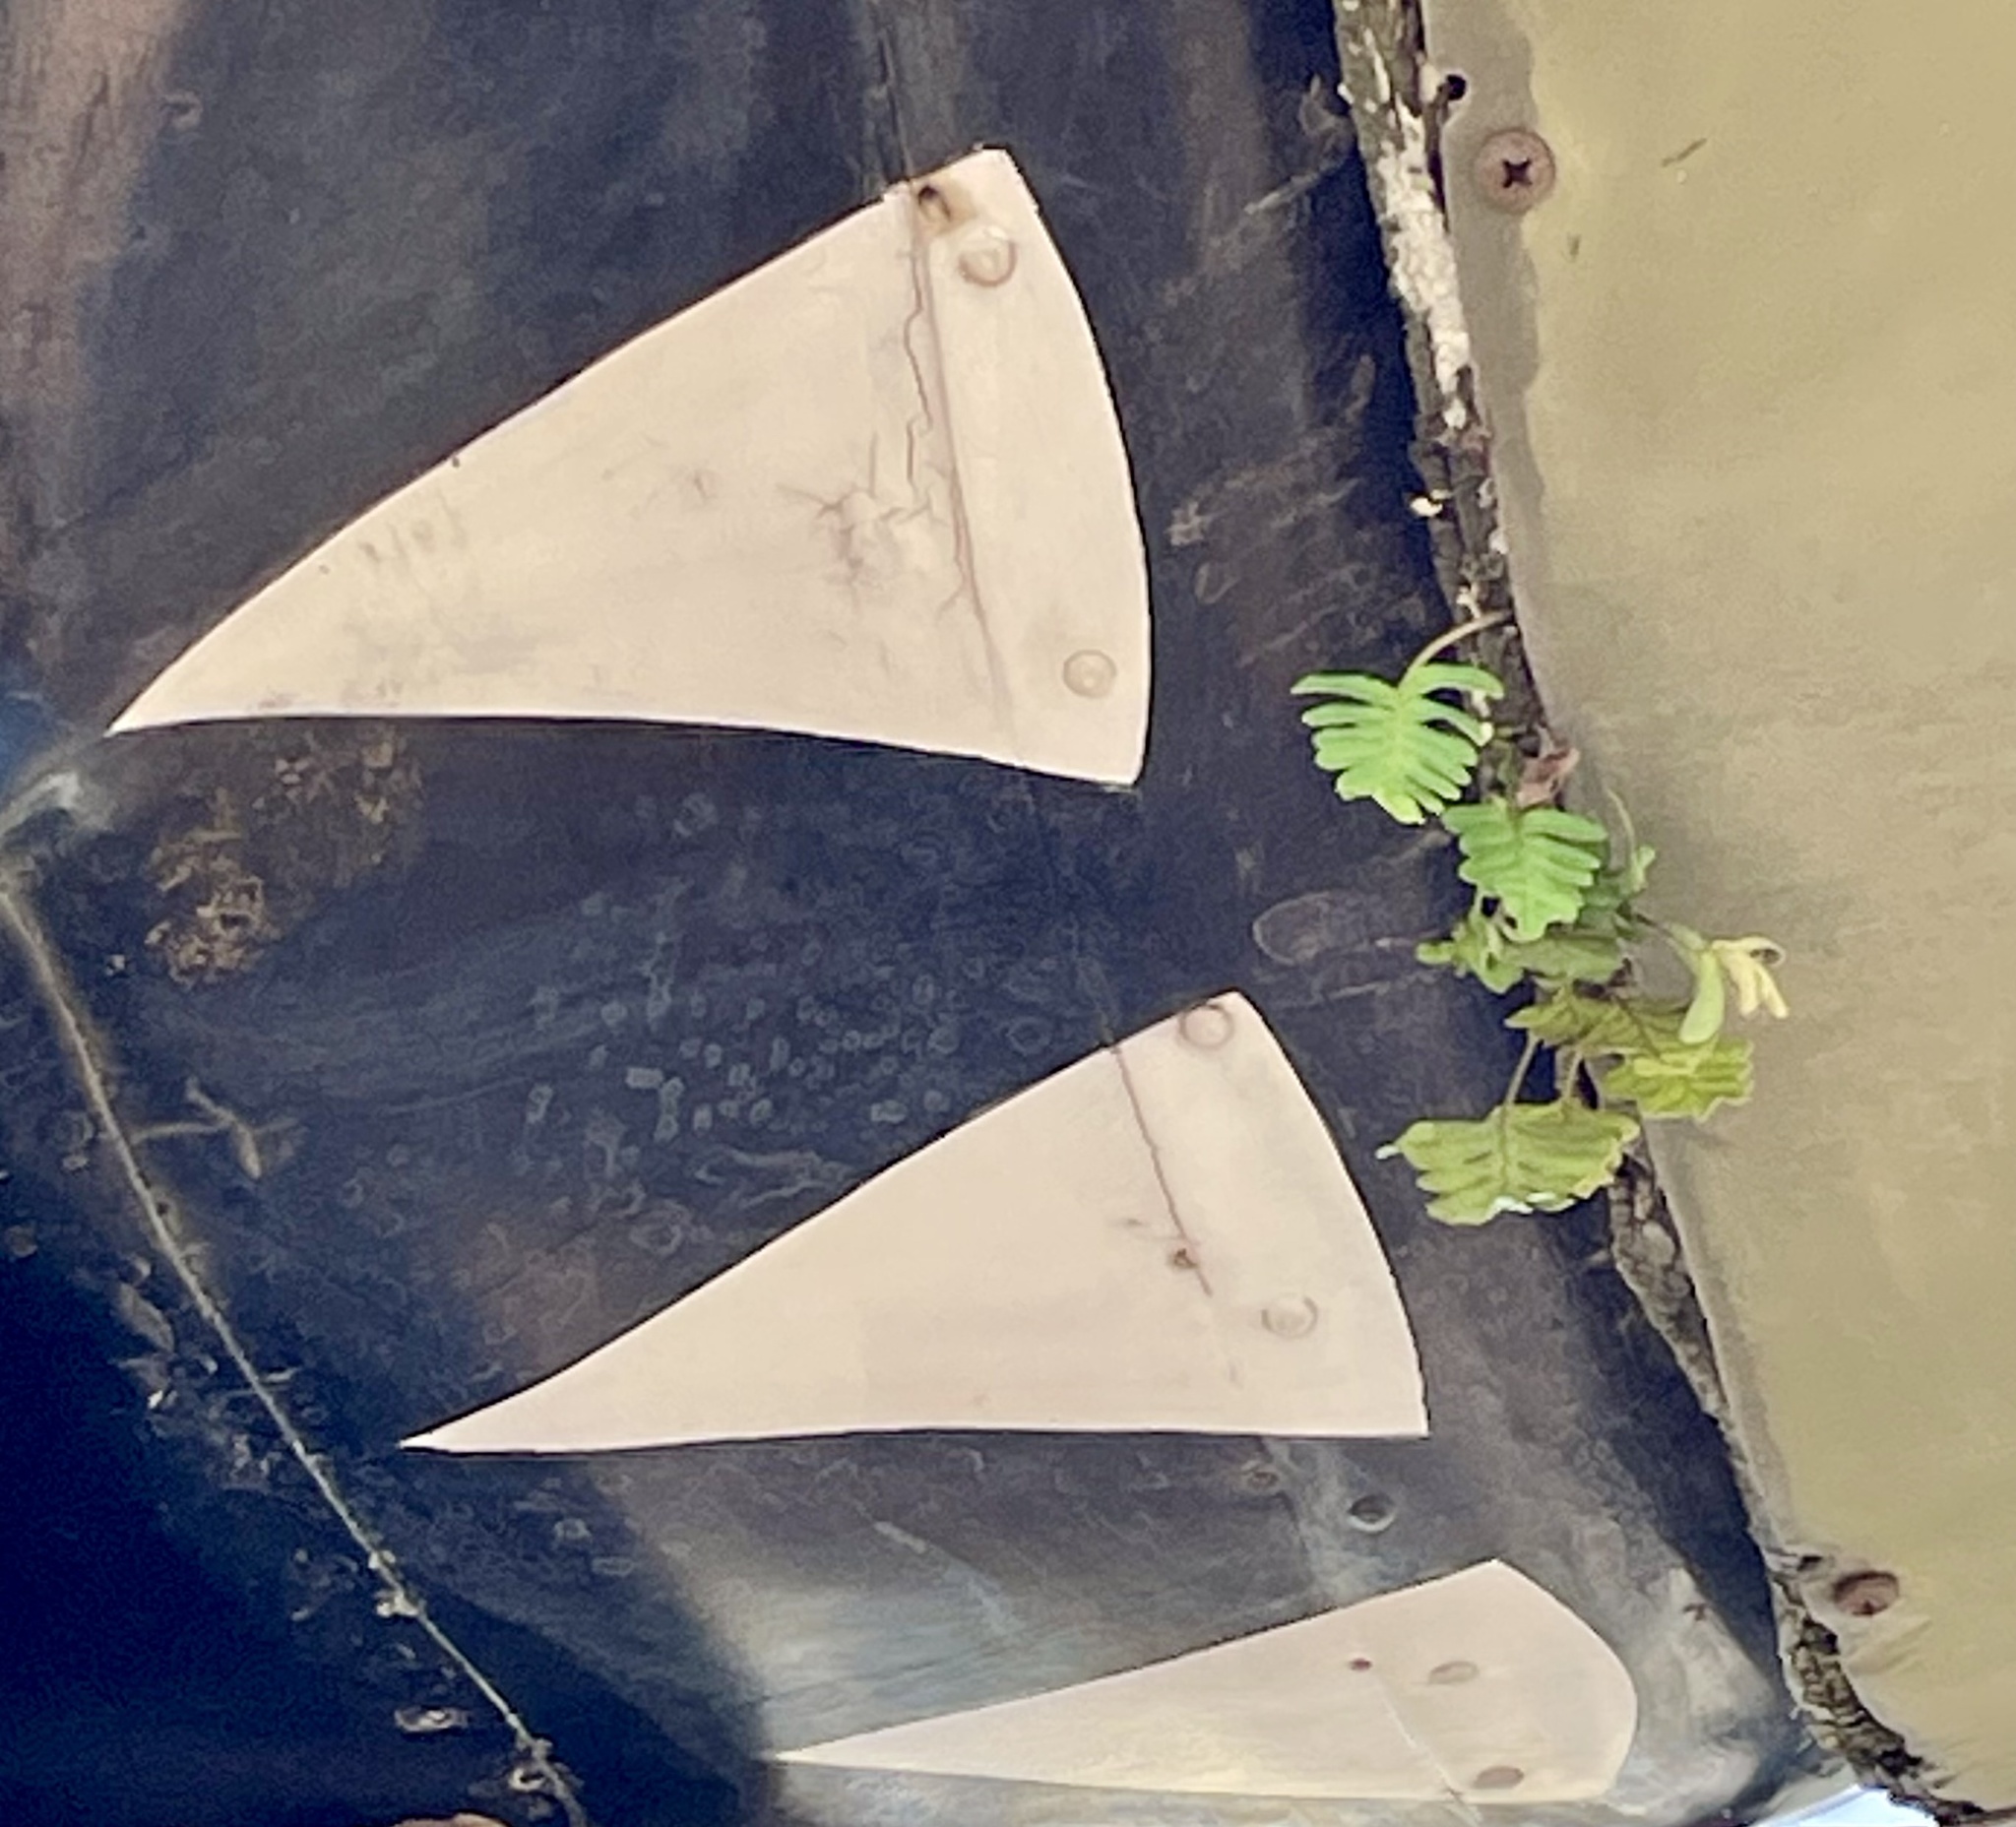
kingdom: Plantae
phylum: Tracheophyta
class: Polypodiopsida
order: Polypodiales
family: Polypodiaceae
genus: Pleopeltis
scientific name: Pleopeltis michauxiana
